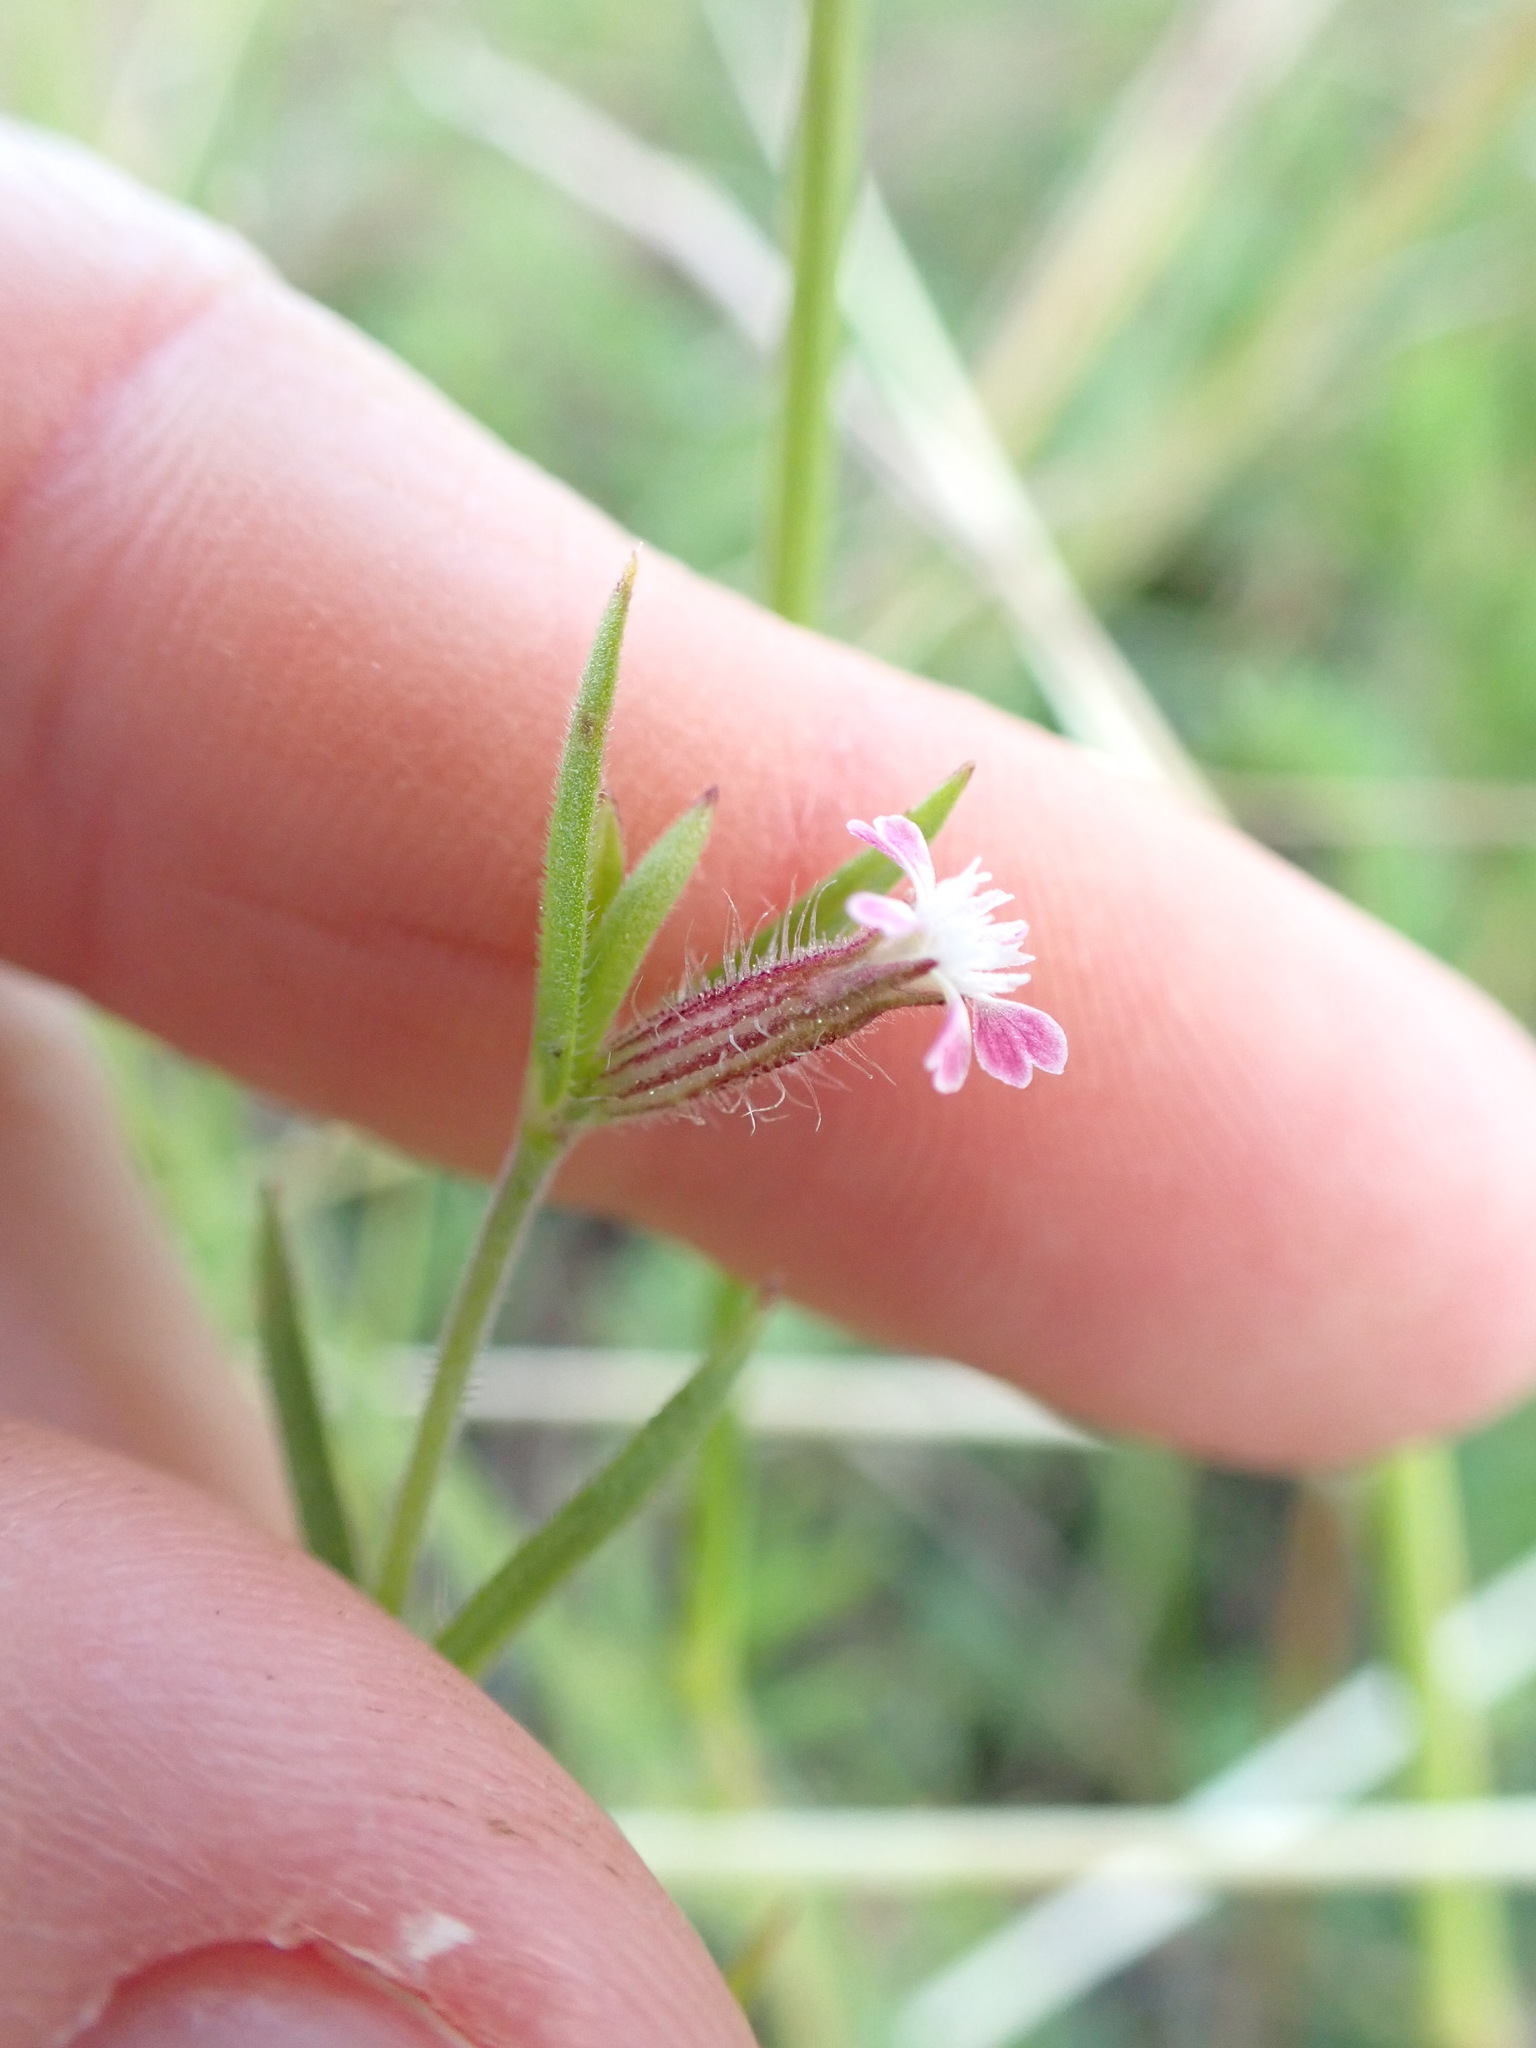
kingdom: Plantae
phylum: Tracheophyta
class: Magnoliopsida
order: Caryophyllales
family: Caryophyllaceae
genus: Silene
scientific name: Silene gallica
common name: Small-flowered catchfly
